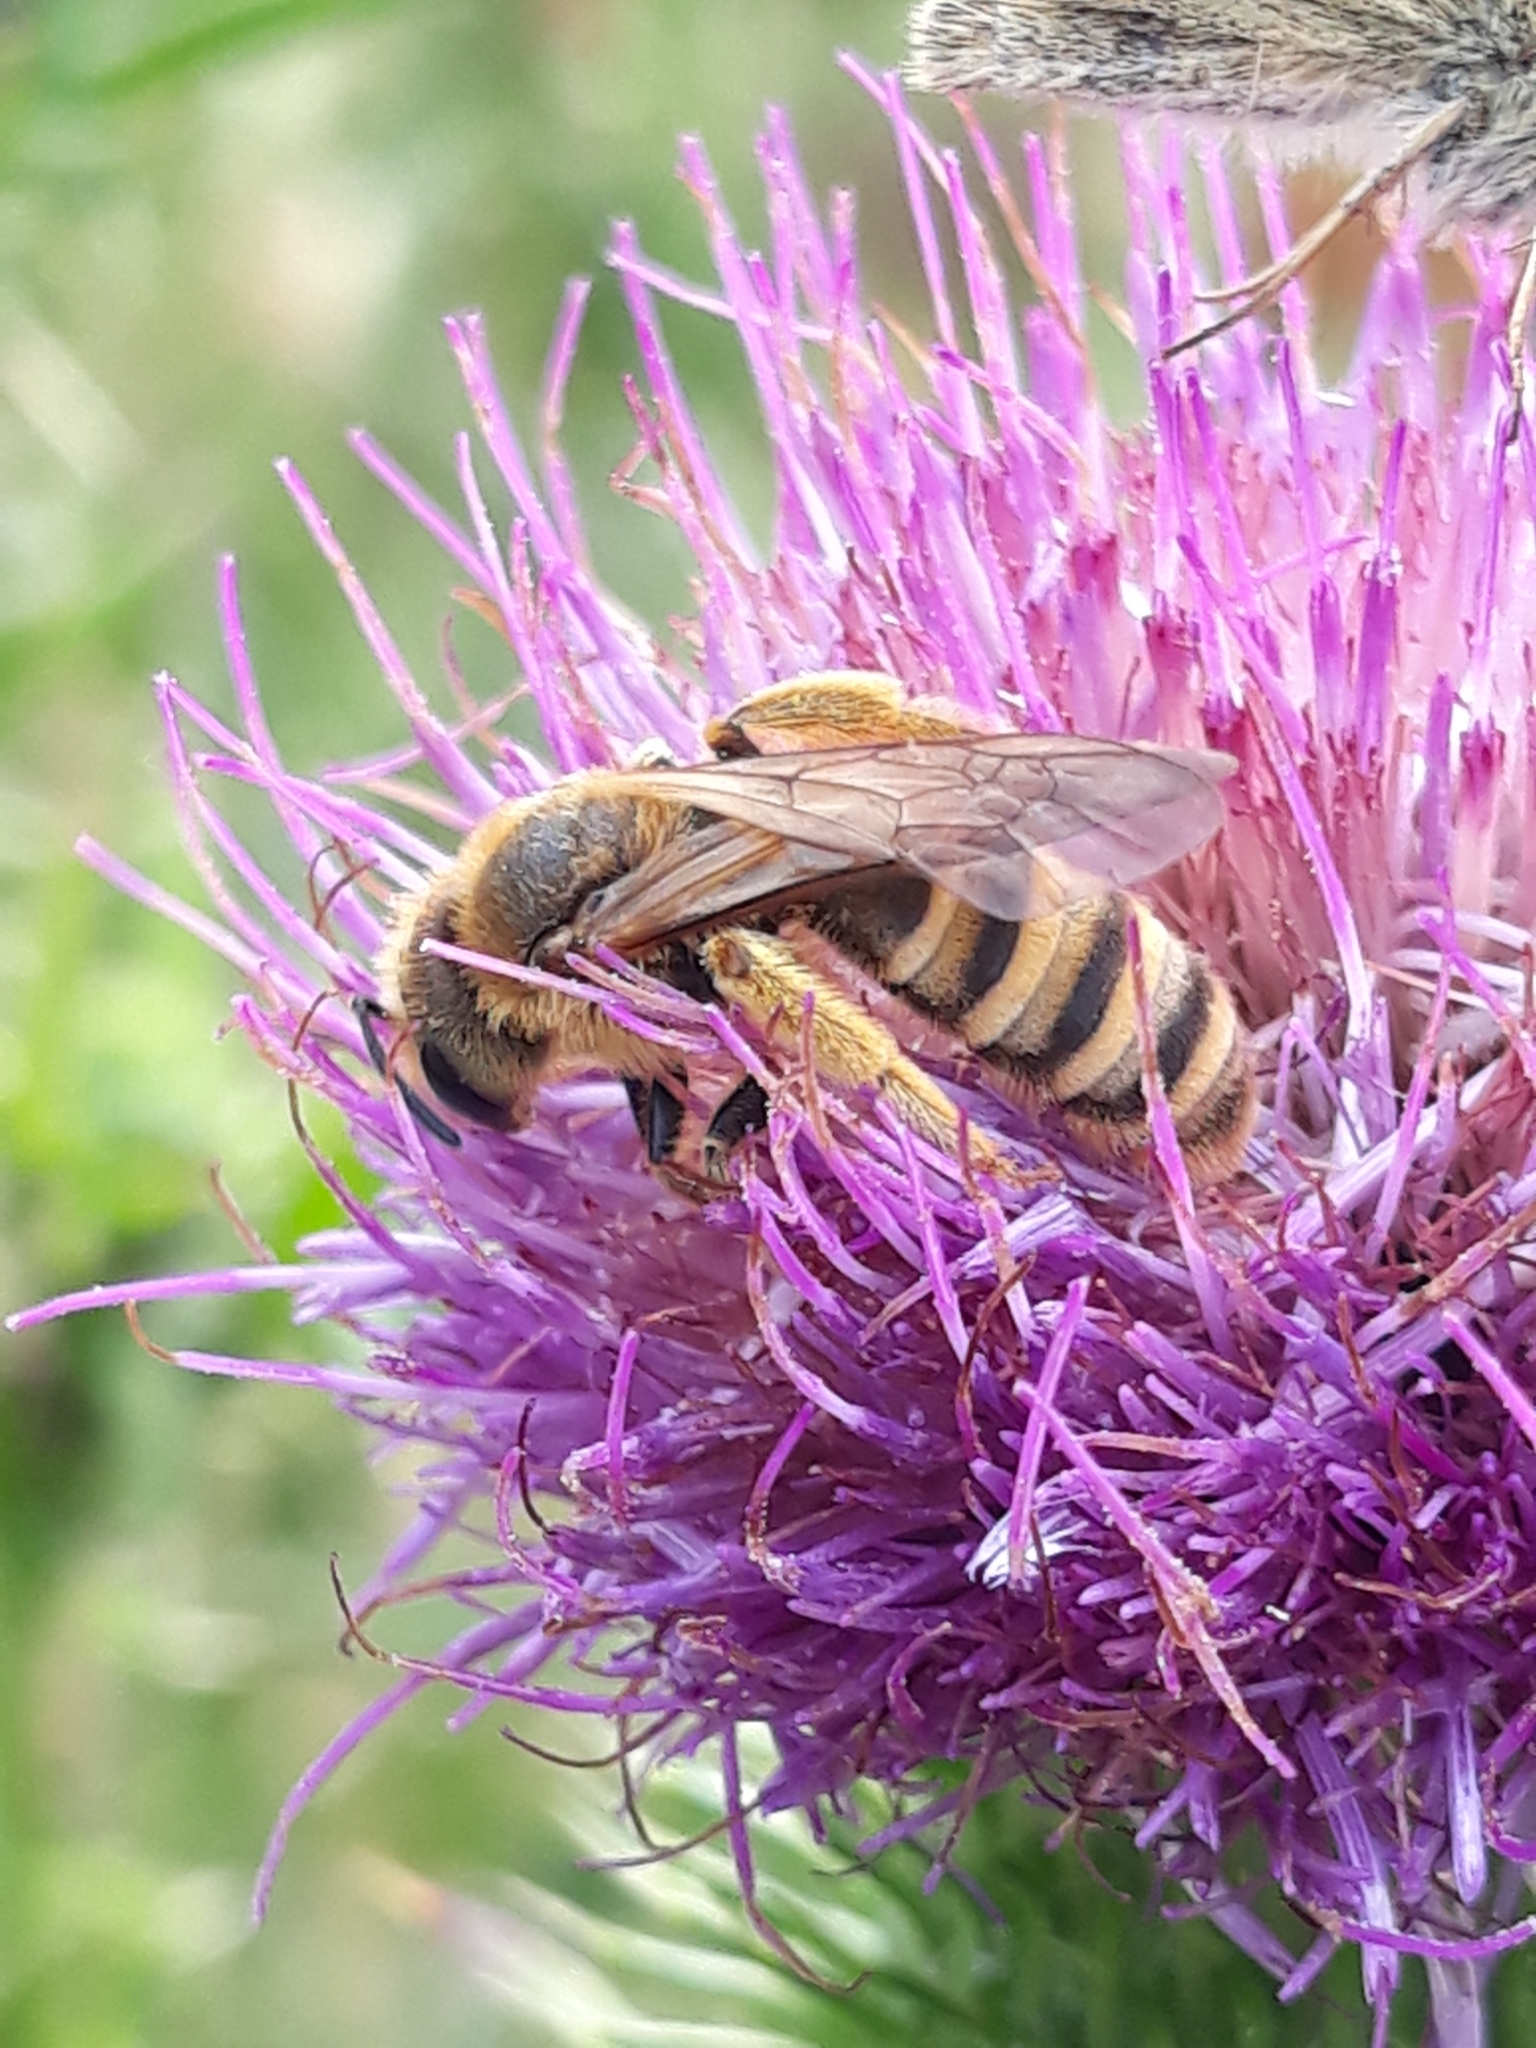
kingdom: Animalia
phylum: Arthropoda
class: Insecta
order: Hymenoptera
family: Halictidae
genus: Halictus
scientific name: Halictus scabiosae
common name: Great banded furrow bee
